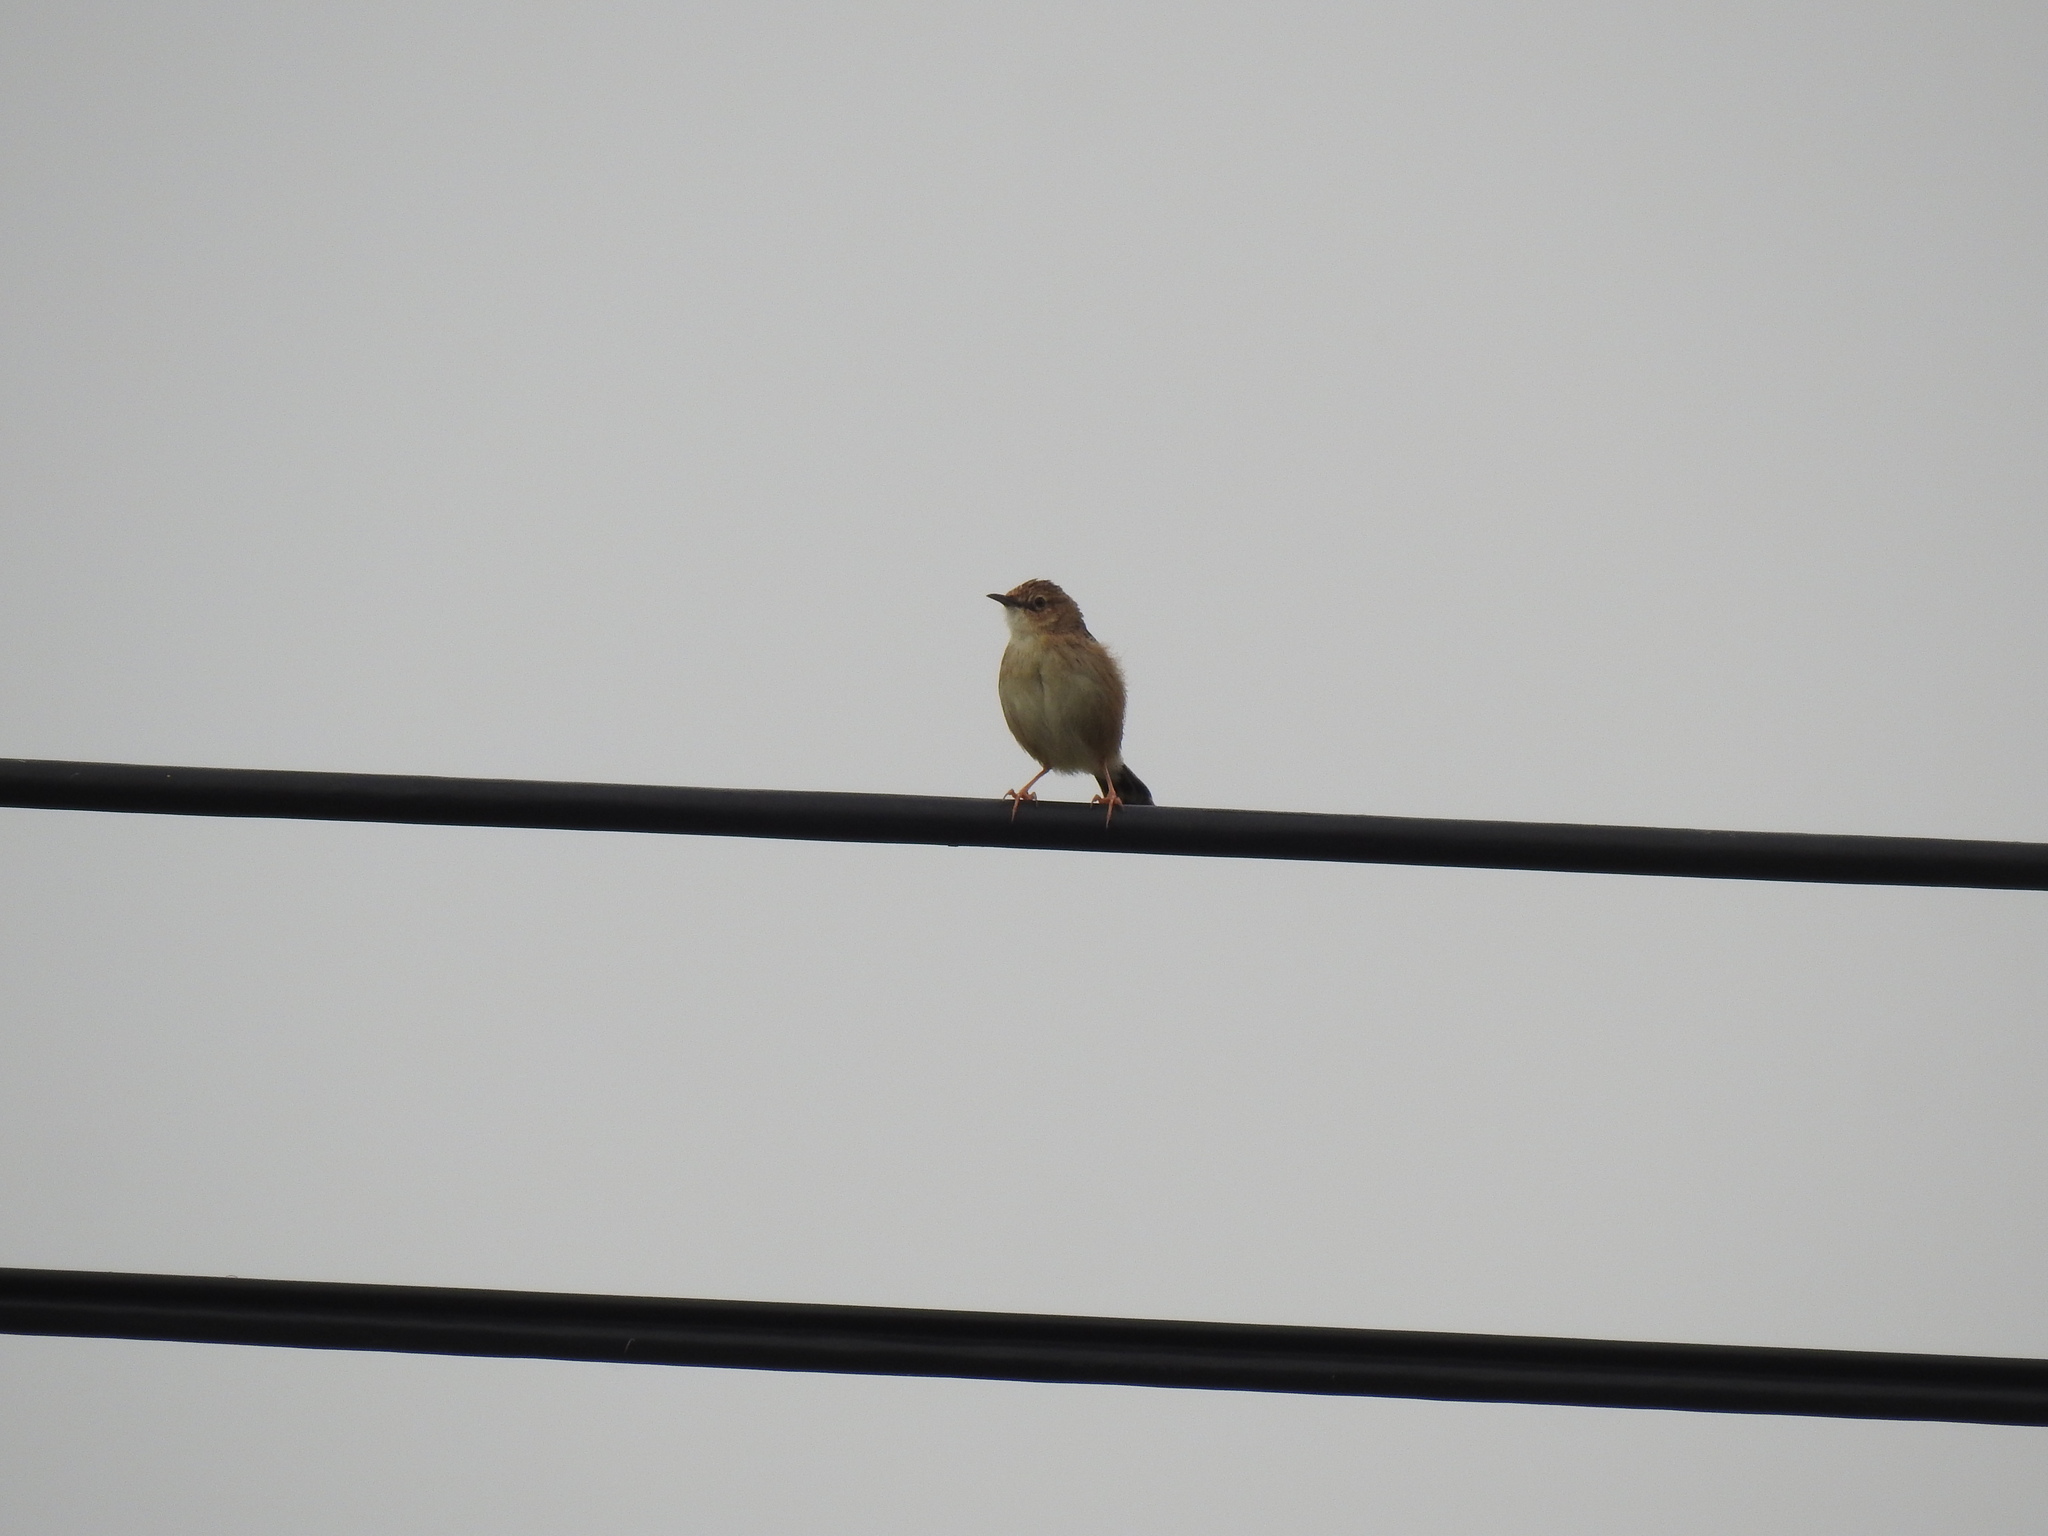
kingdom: Animalia
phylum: Chordata
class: Aves
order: Passeriformes
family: Cisticolidae
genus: Cisticola
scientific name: Cisticola juncidis
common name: Zitting cisticola
